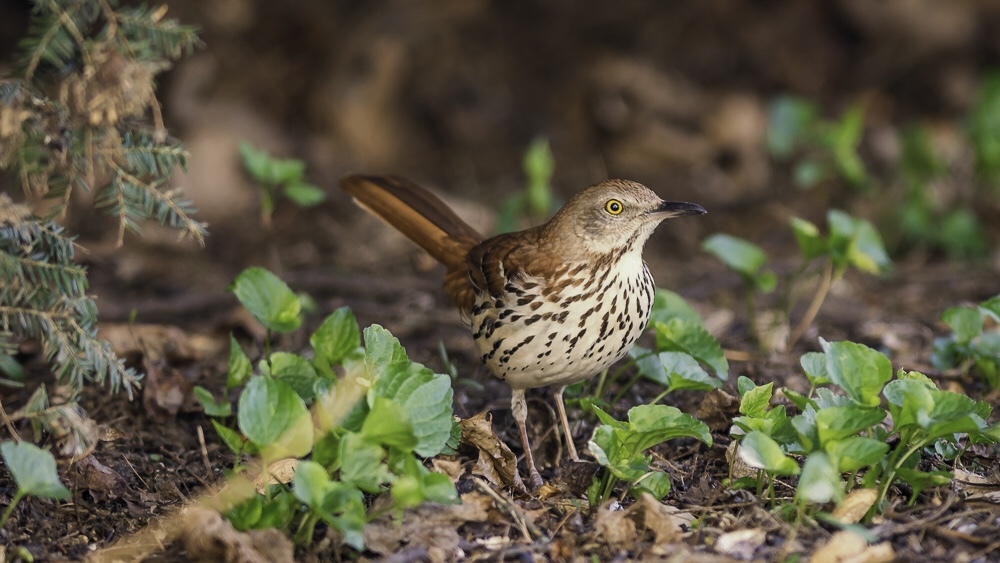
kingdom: Animalia
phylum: Chordata
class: Aves
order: Passeriformes
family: Mimidae
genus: Toxostoma
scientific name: Toxostoma rufum
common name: Brown thrasher
